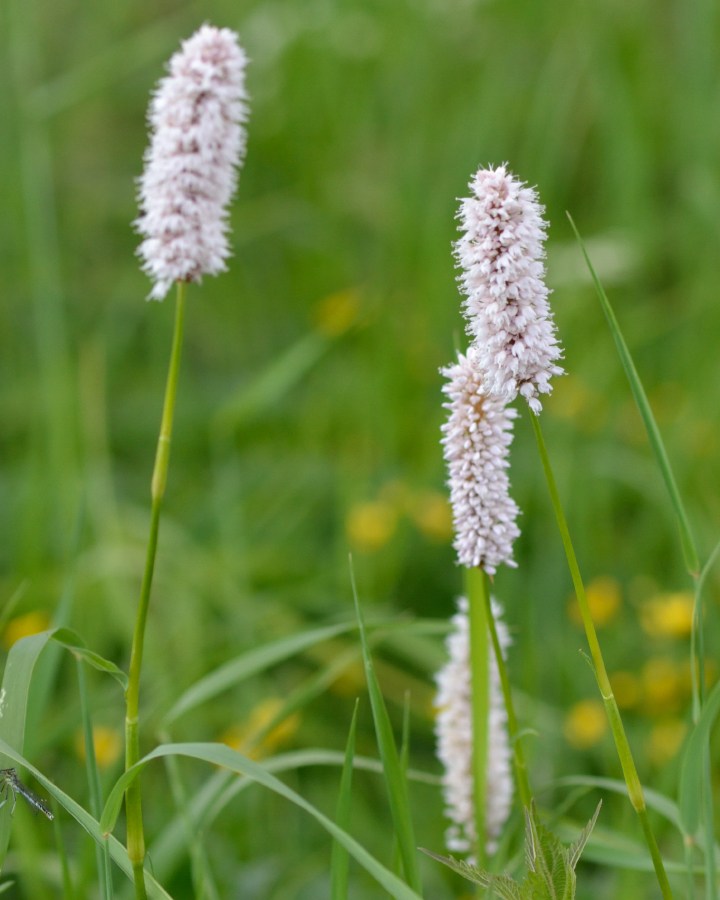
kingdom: Plantae
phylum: Tracheophyta
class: Magnoliopsida
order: Caryophyllales
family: Polygonaceae
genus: Bistorta
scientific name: Bistorta officinalis
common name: Common bistort
